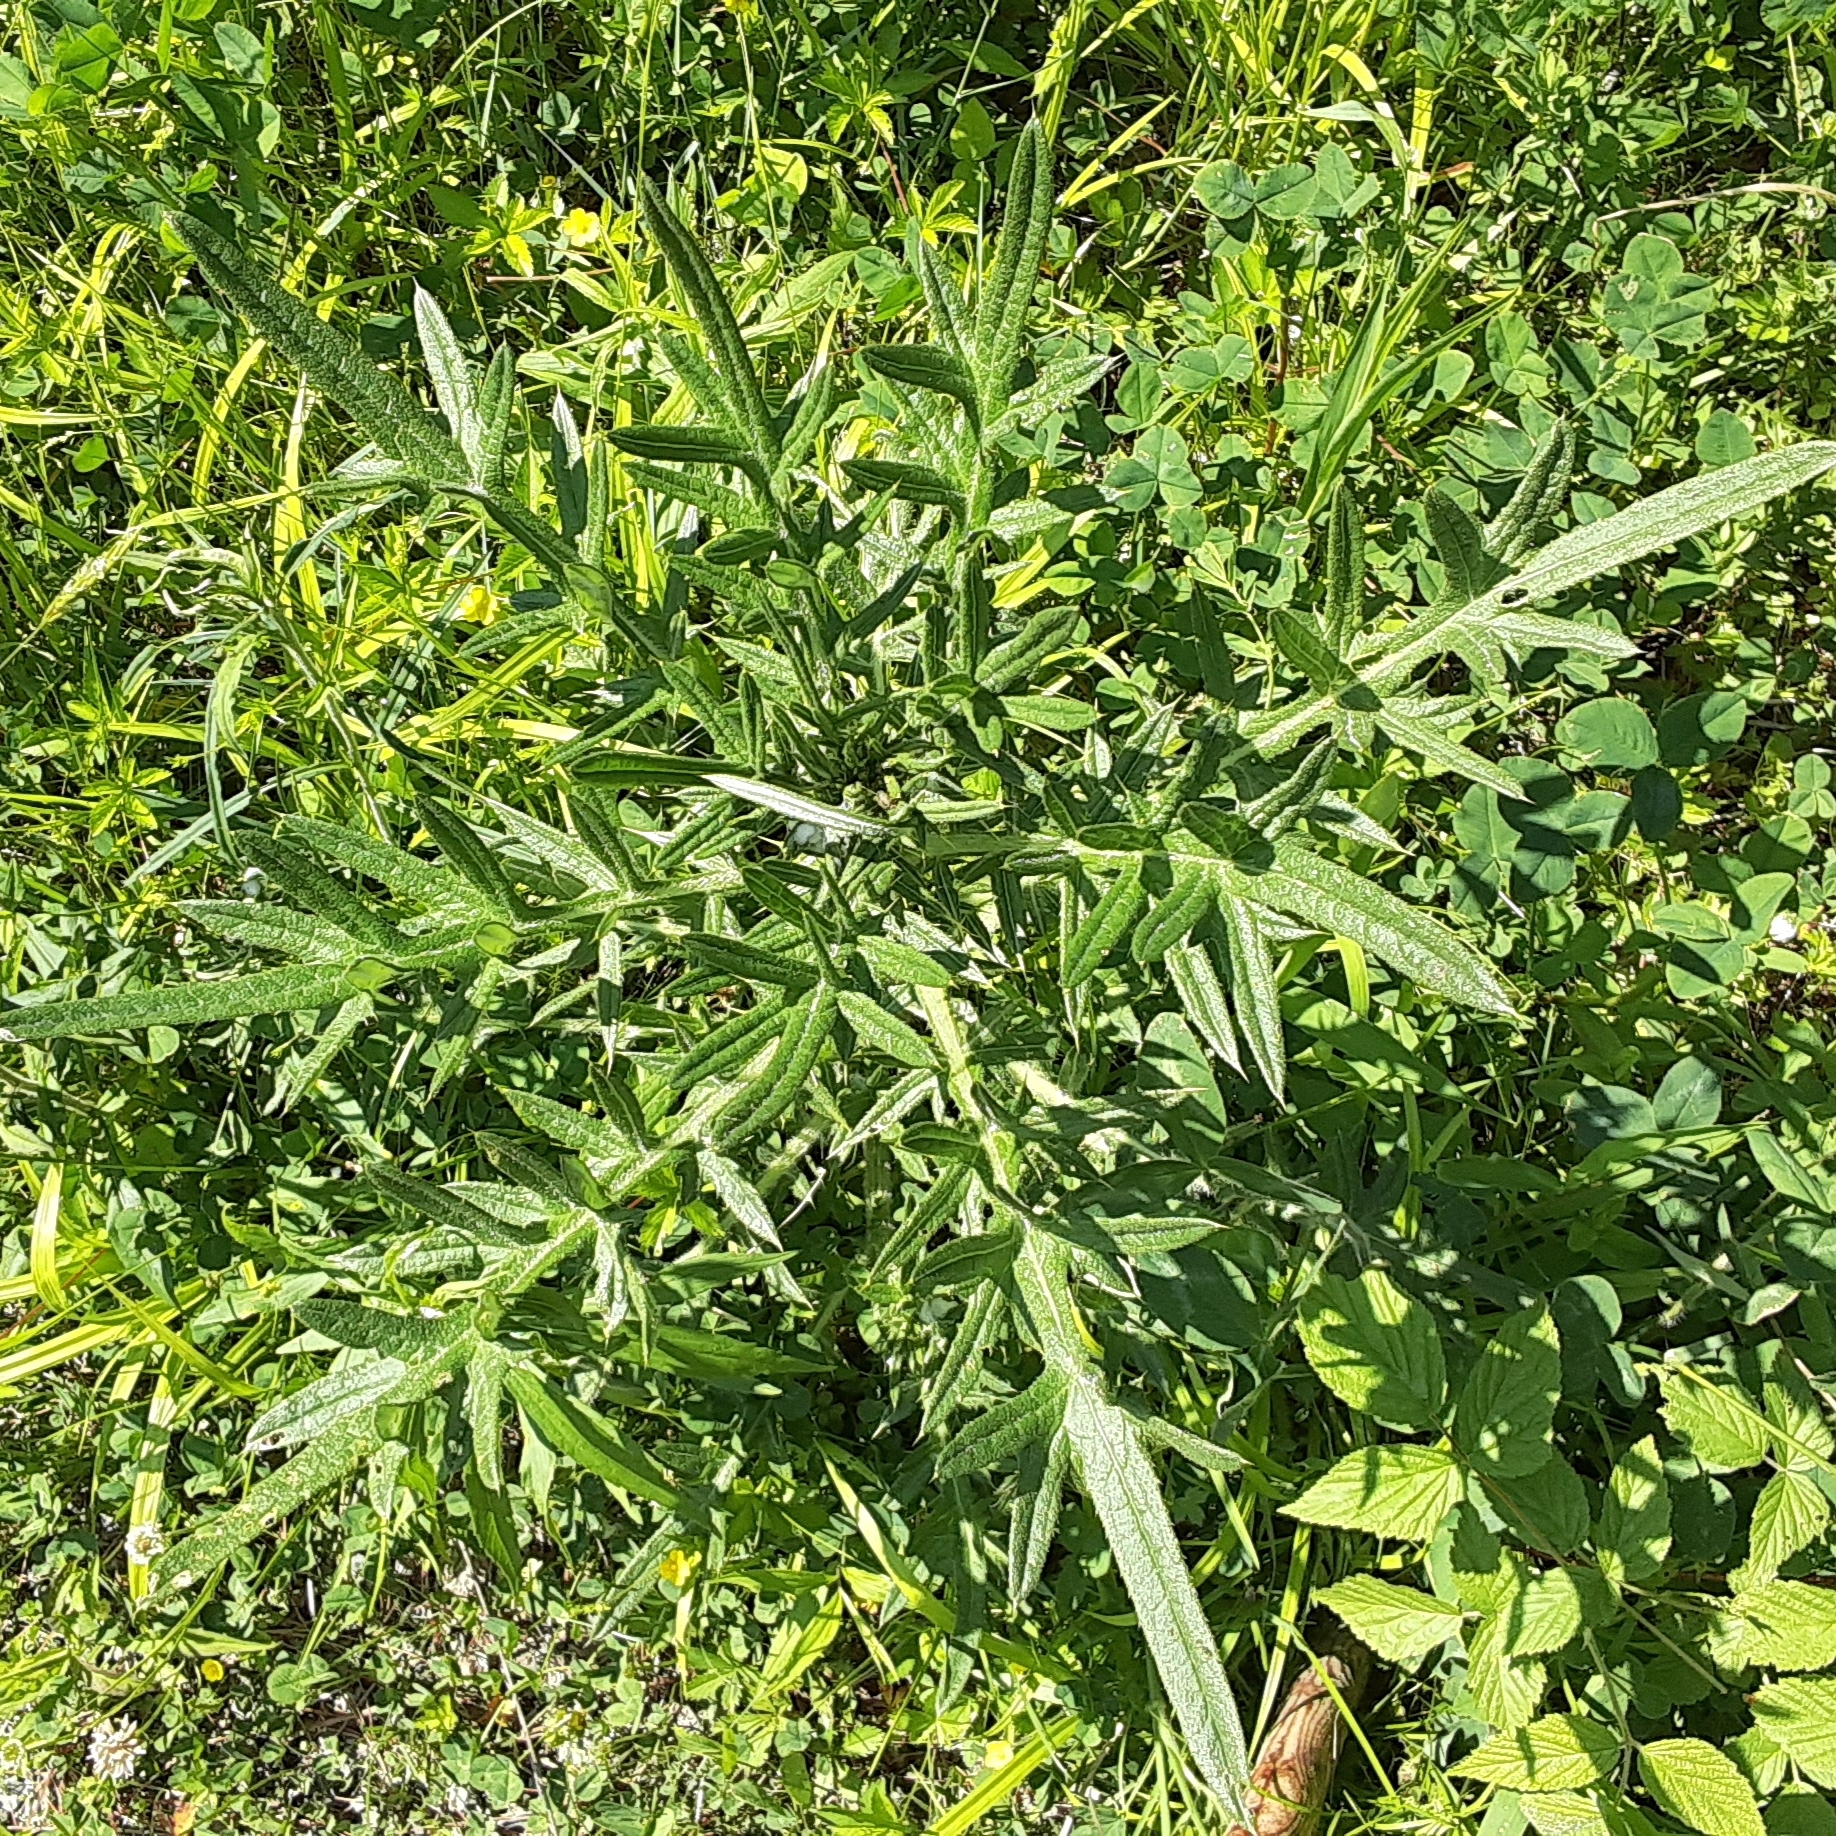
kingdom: Plantae
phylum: Tracheophyta
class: Magnoliopsida
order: Asterales
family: Asteraceae
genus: Cirsium
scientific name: Cirsium vulgare
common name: Bull thistle
